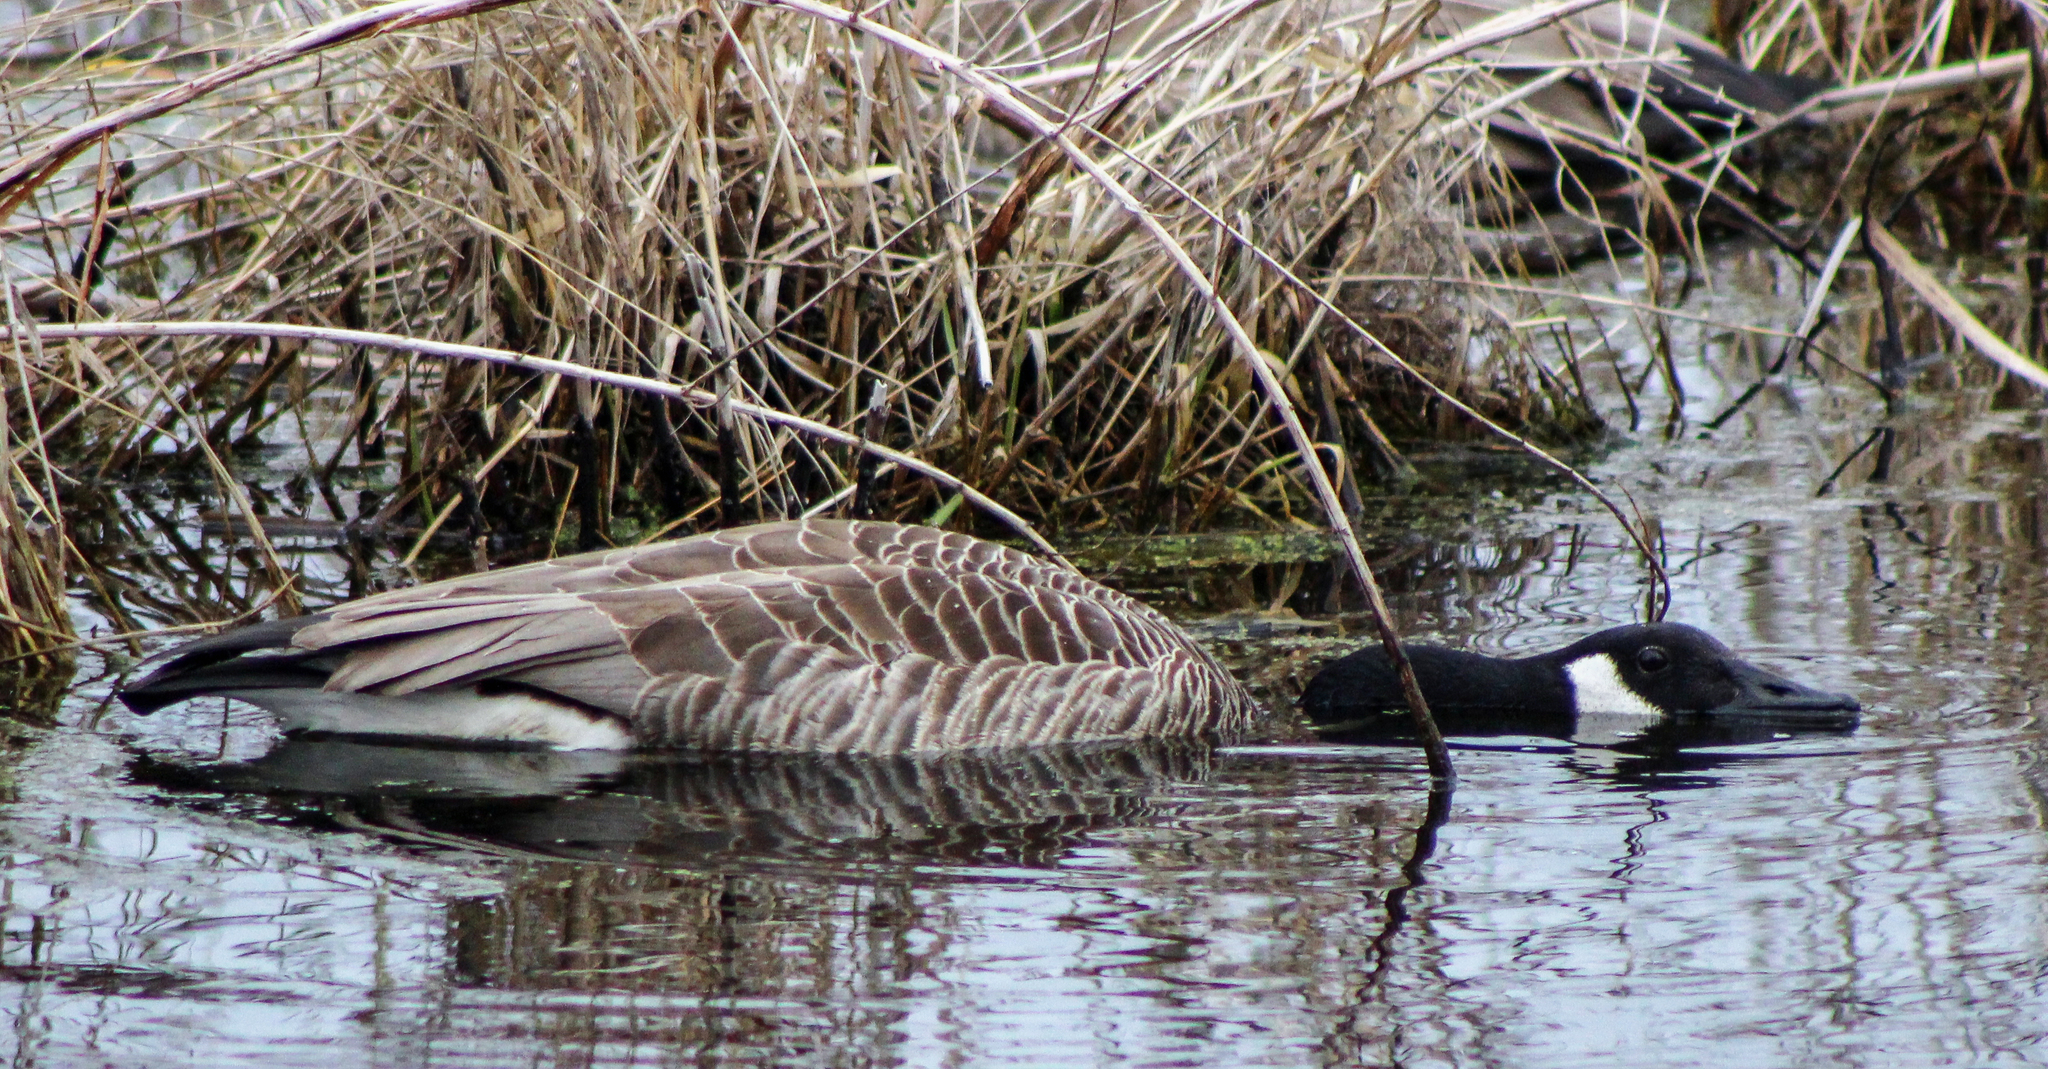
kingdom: Animalia
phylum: Chordata
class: Aves
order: Anseriformes
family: Anatidae
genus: Branta
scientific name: Branta canadensis
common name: Canada goose
